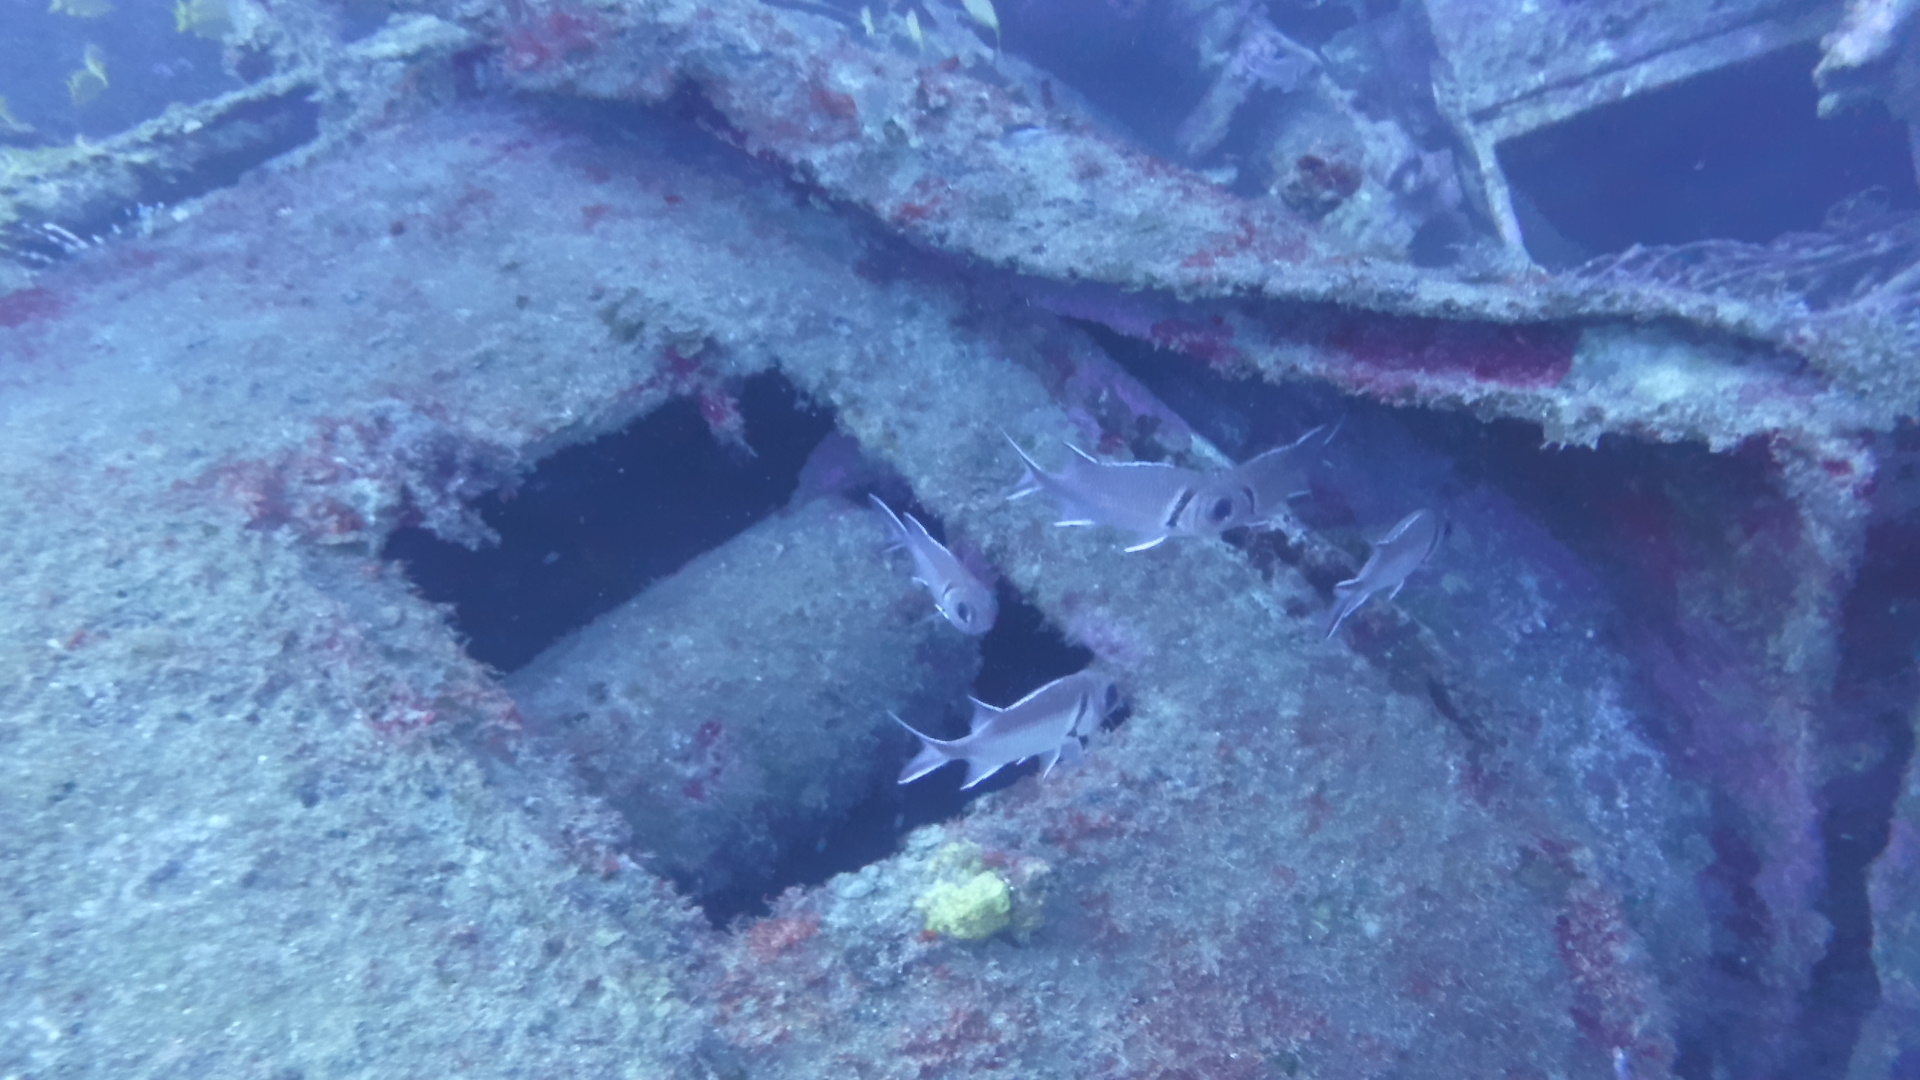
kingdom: Animalia
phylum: Chordata
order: Beryciformes
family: Holocentridae
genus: Myripristis
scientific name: Myripristis jacobus
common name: Blackbar soldierfish
